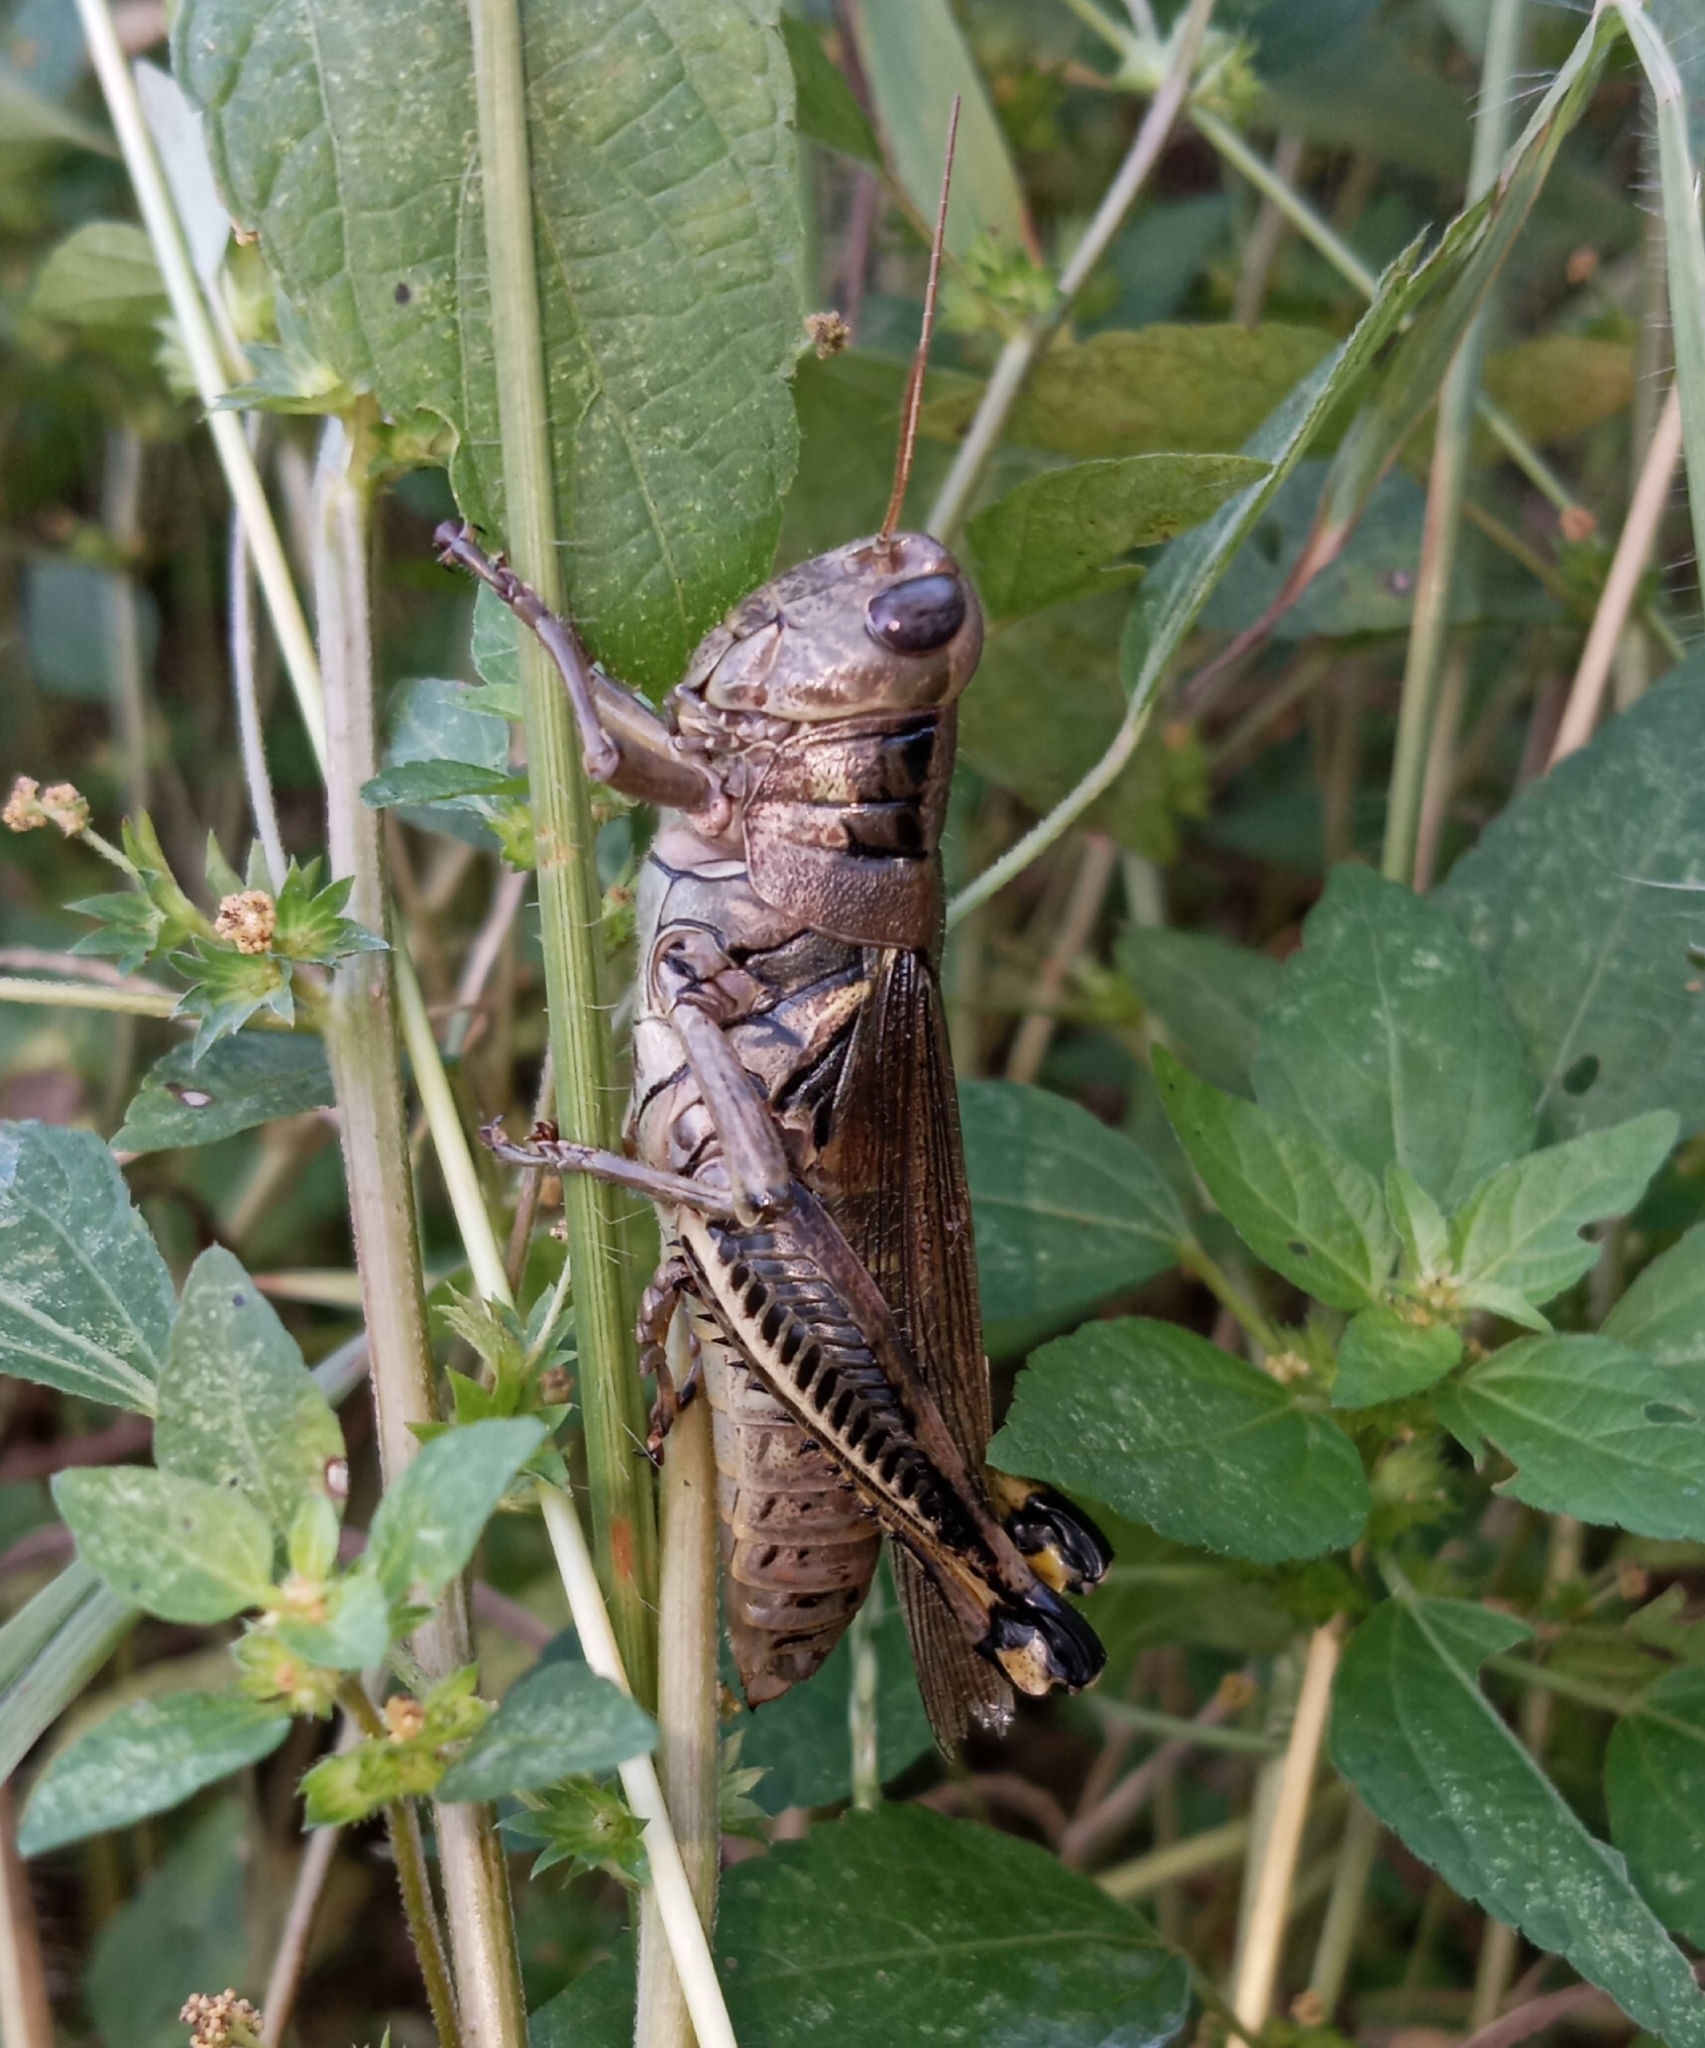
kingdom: Animalia
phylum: Arthropoda
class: Insecta
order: Orthoptera
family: Acrididae
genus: Melanoplus
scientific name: Melanoplus differentialis
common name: Differential grasshopper
